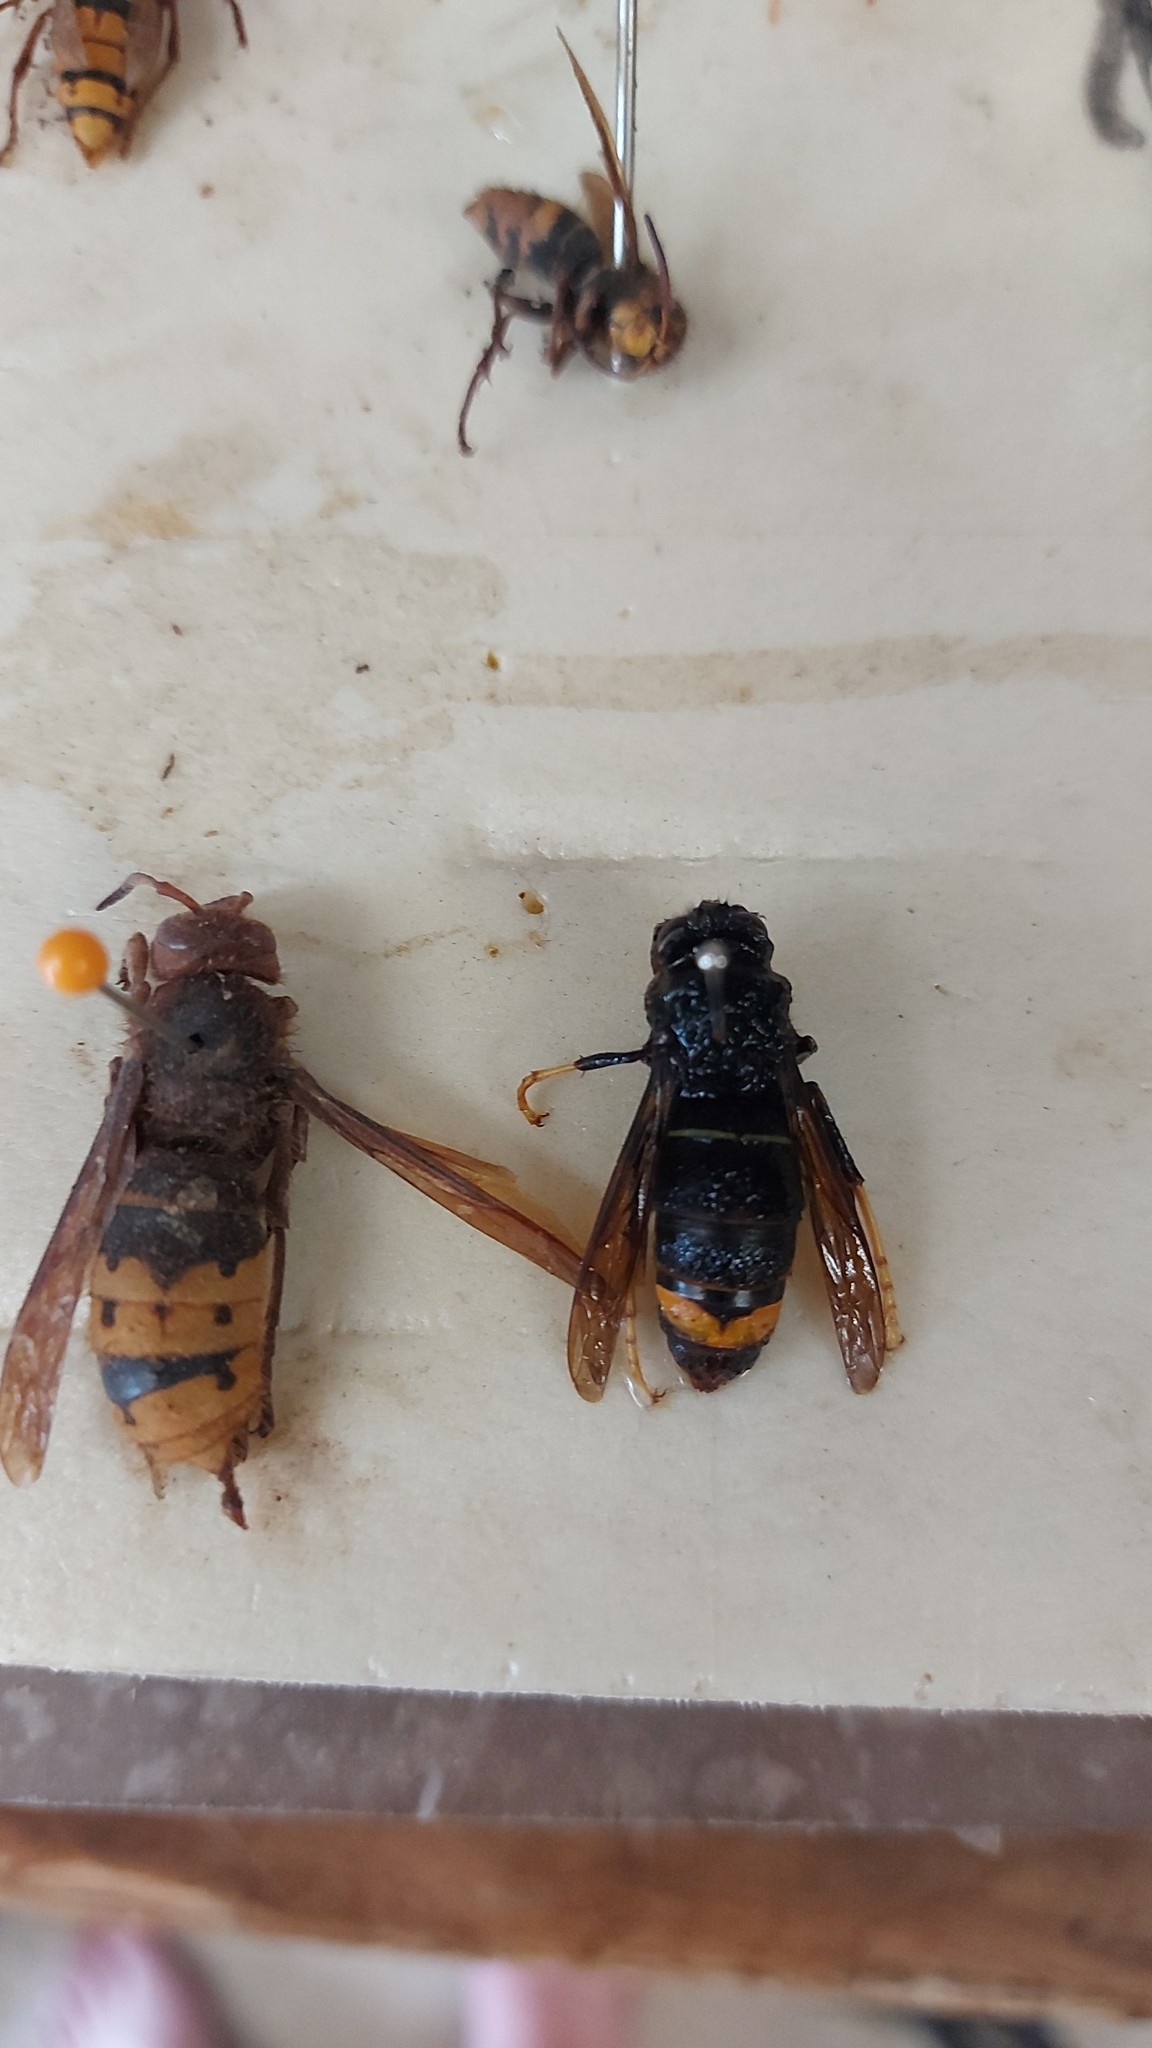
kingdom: Animalia
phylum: Arthropoda
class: Insecta
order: Hymenoptera
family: Vespidae
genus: Vespa
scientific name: Vespa velutina
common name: Asian hornet
